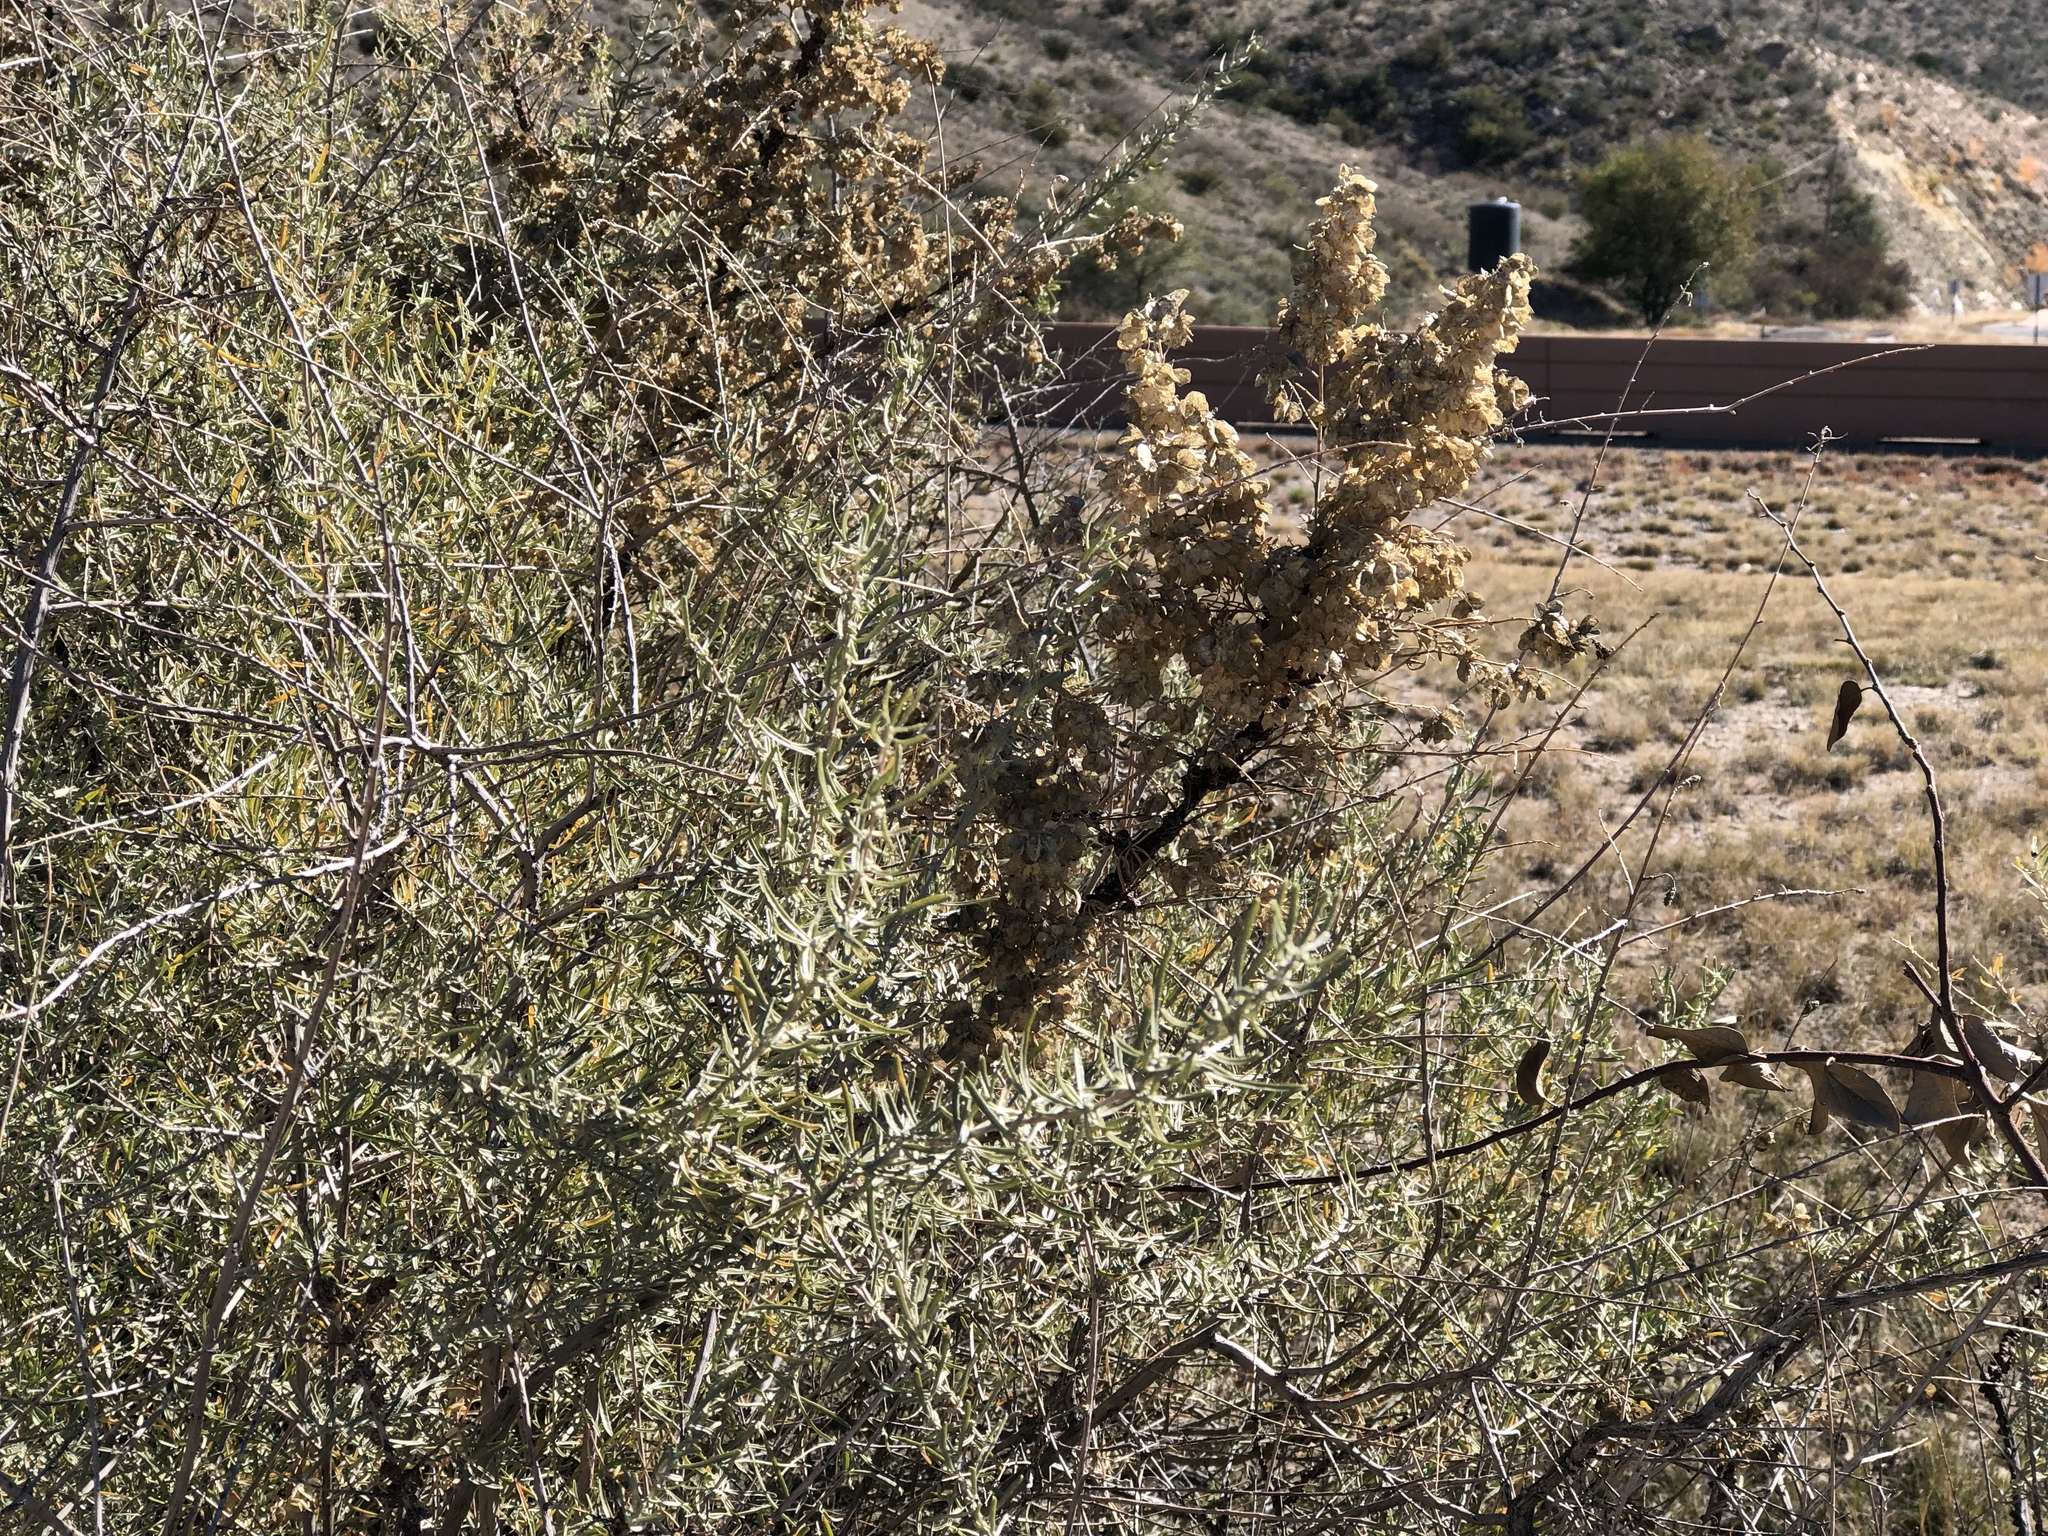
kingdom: Plantae
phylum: Tracheophyta
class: Magnoliopsida
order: Caryophyllales
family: Amaranthaceae
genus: Atriplex
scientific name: Atriplex canescens
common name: Four-wing saltbush
